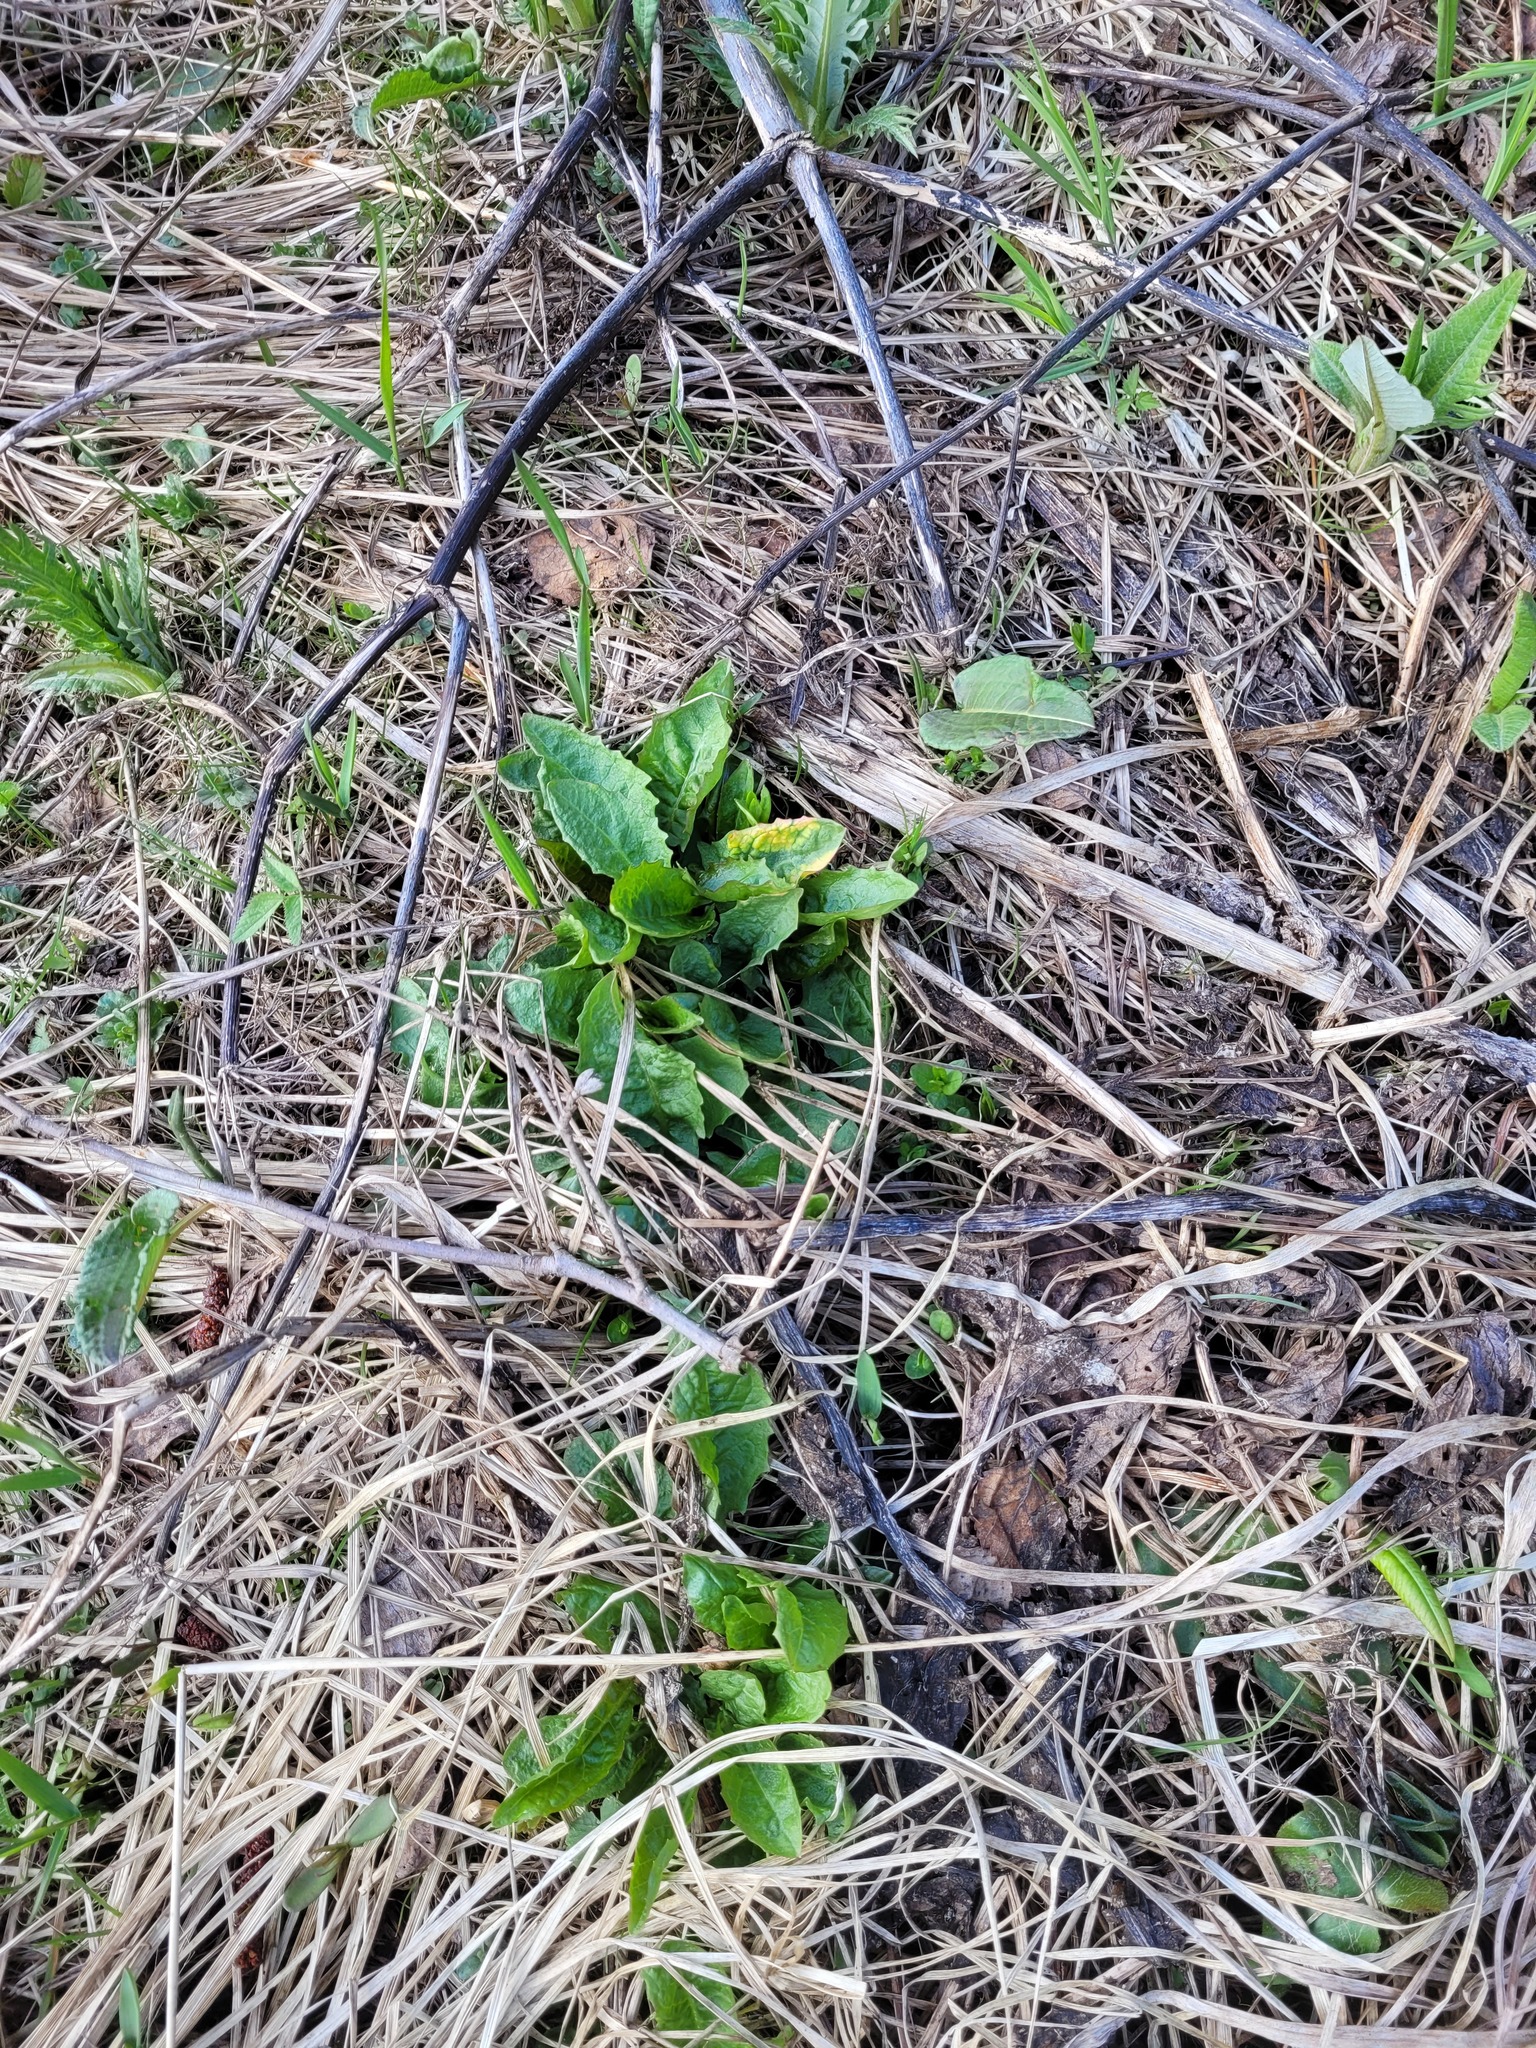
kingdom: Plantae
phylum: Tracheophyta
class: Magnoliopsida
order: Asterales
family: Asteraceae
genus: Crepis
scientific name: Crepis paludosa
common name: Marsh hawk's-beard
